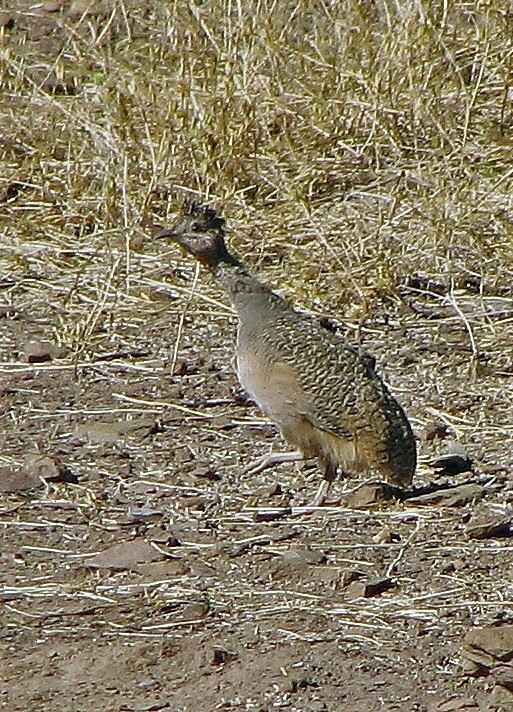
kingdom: Animalia
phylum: Chordata
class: Aves
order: Tinamiformes
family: Tinamidae
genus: Nothoprocta
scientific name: Nothoprocta ornata
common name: Ornate tinamou
